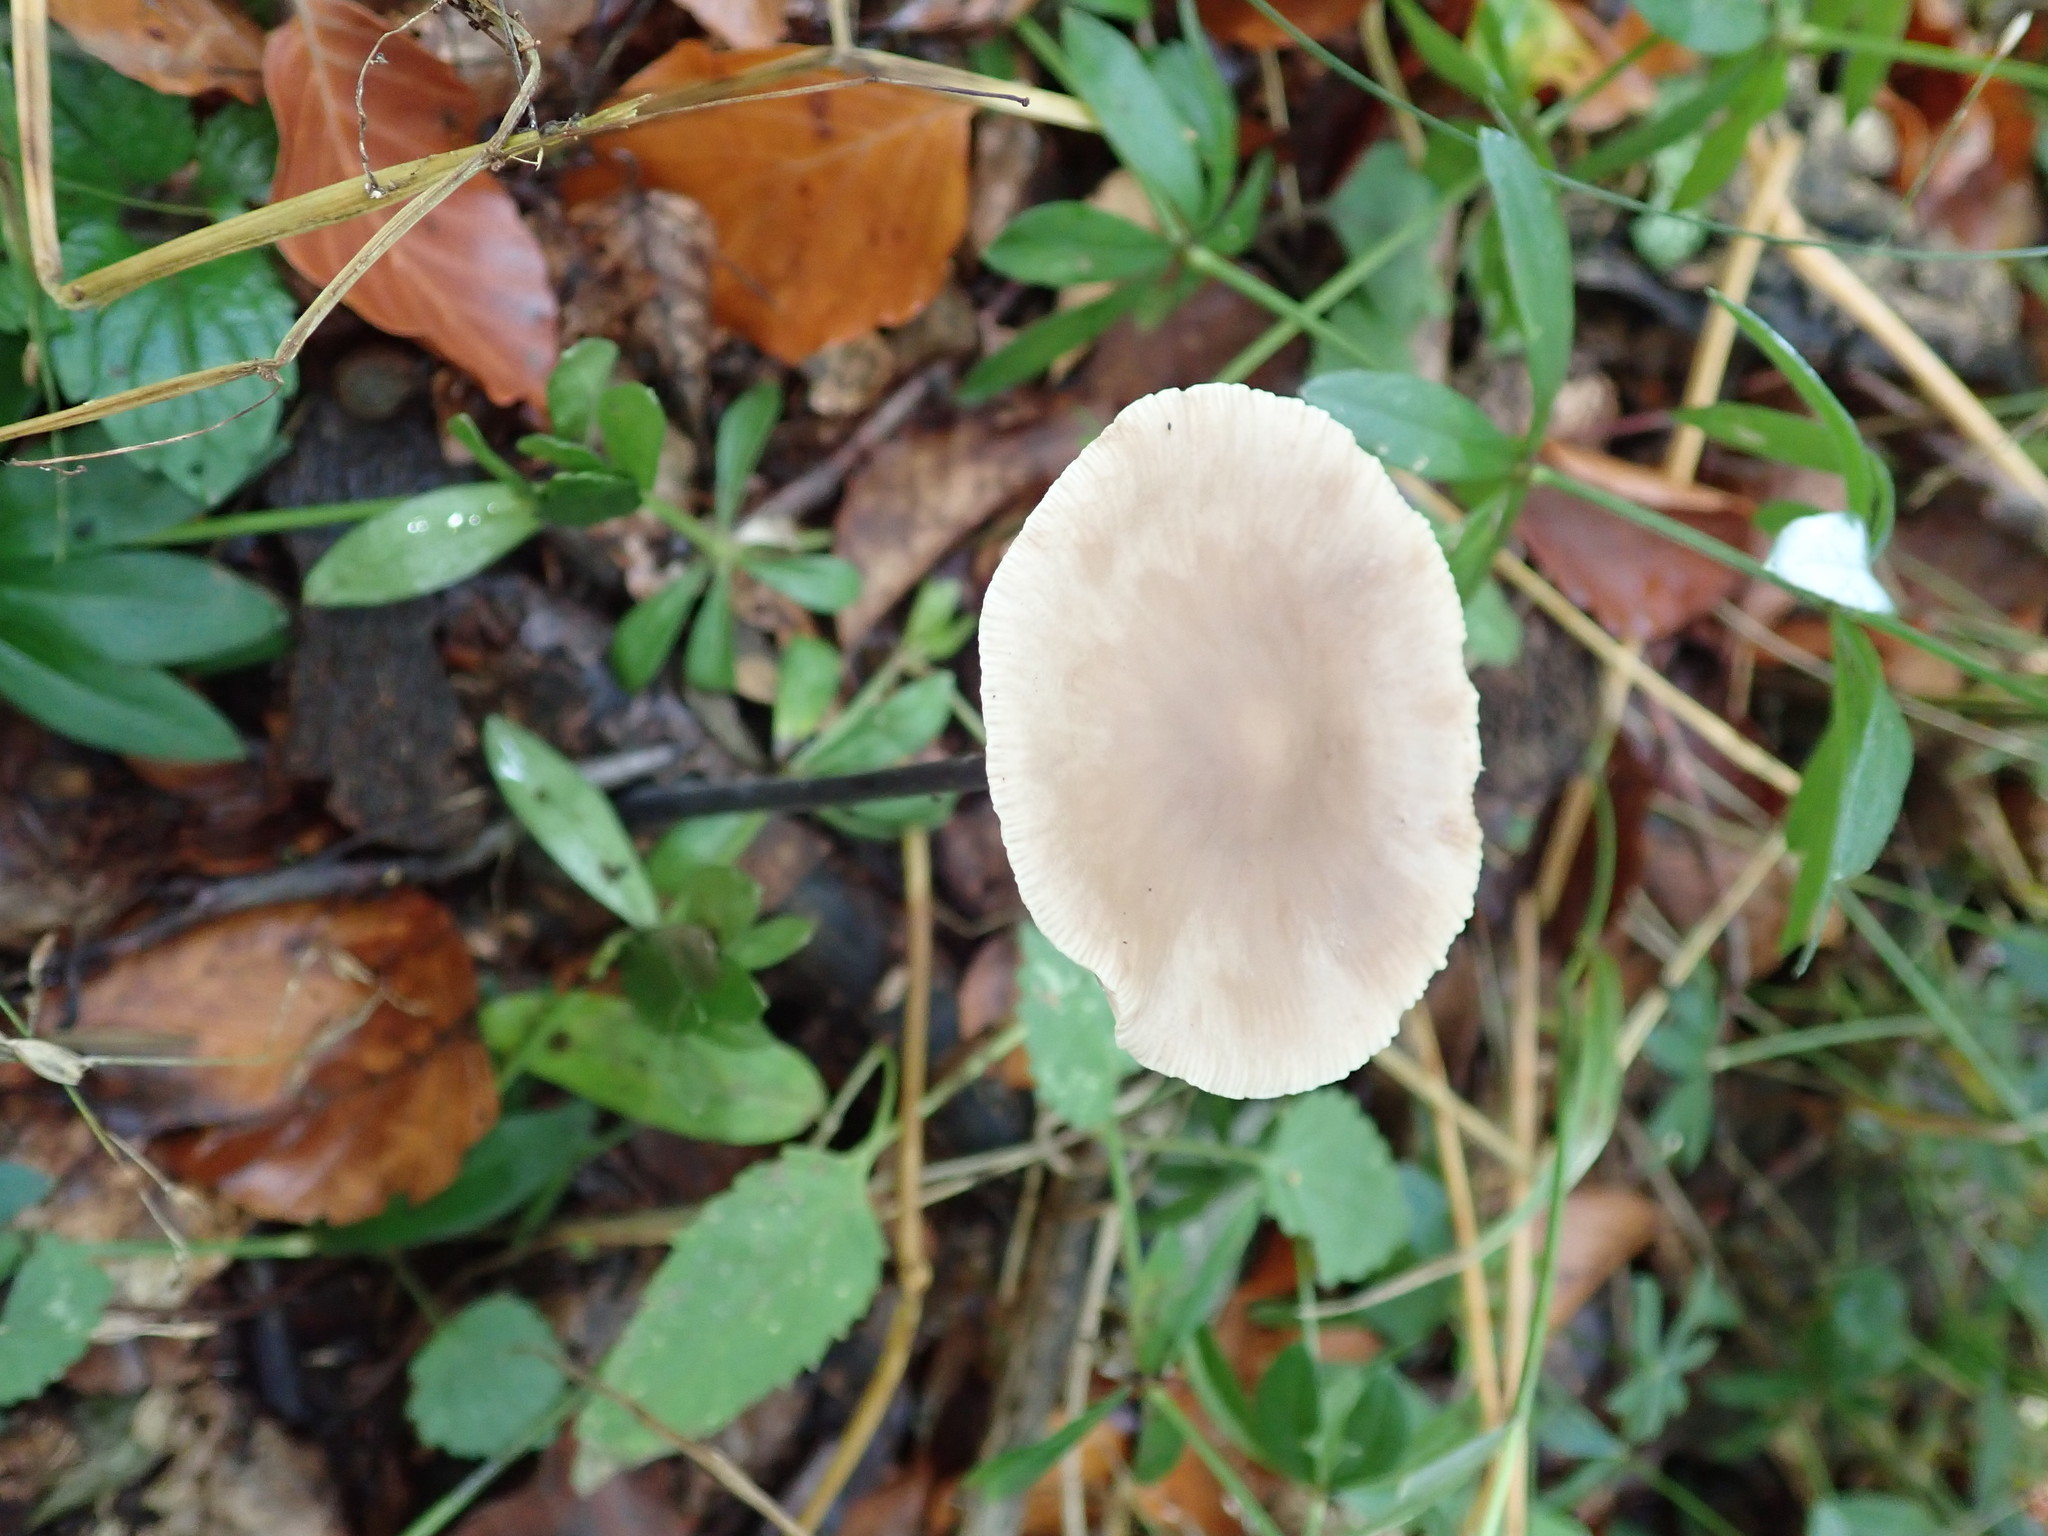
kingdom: Fungi
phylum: Basidiomycota
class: Agaricomycetes
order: Agaricales
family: Omphalotaceae
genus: Mycetinis
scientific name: Mycetinis alliaceus
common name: Garlic parachute
